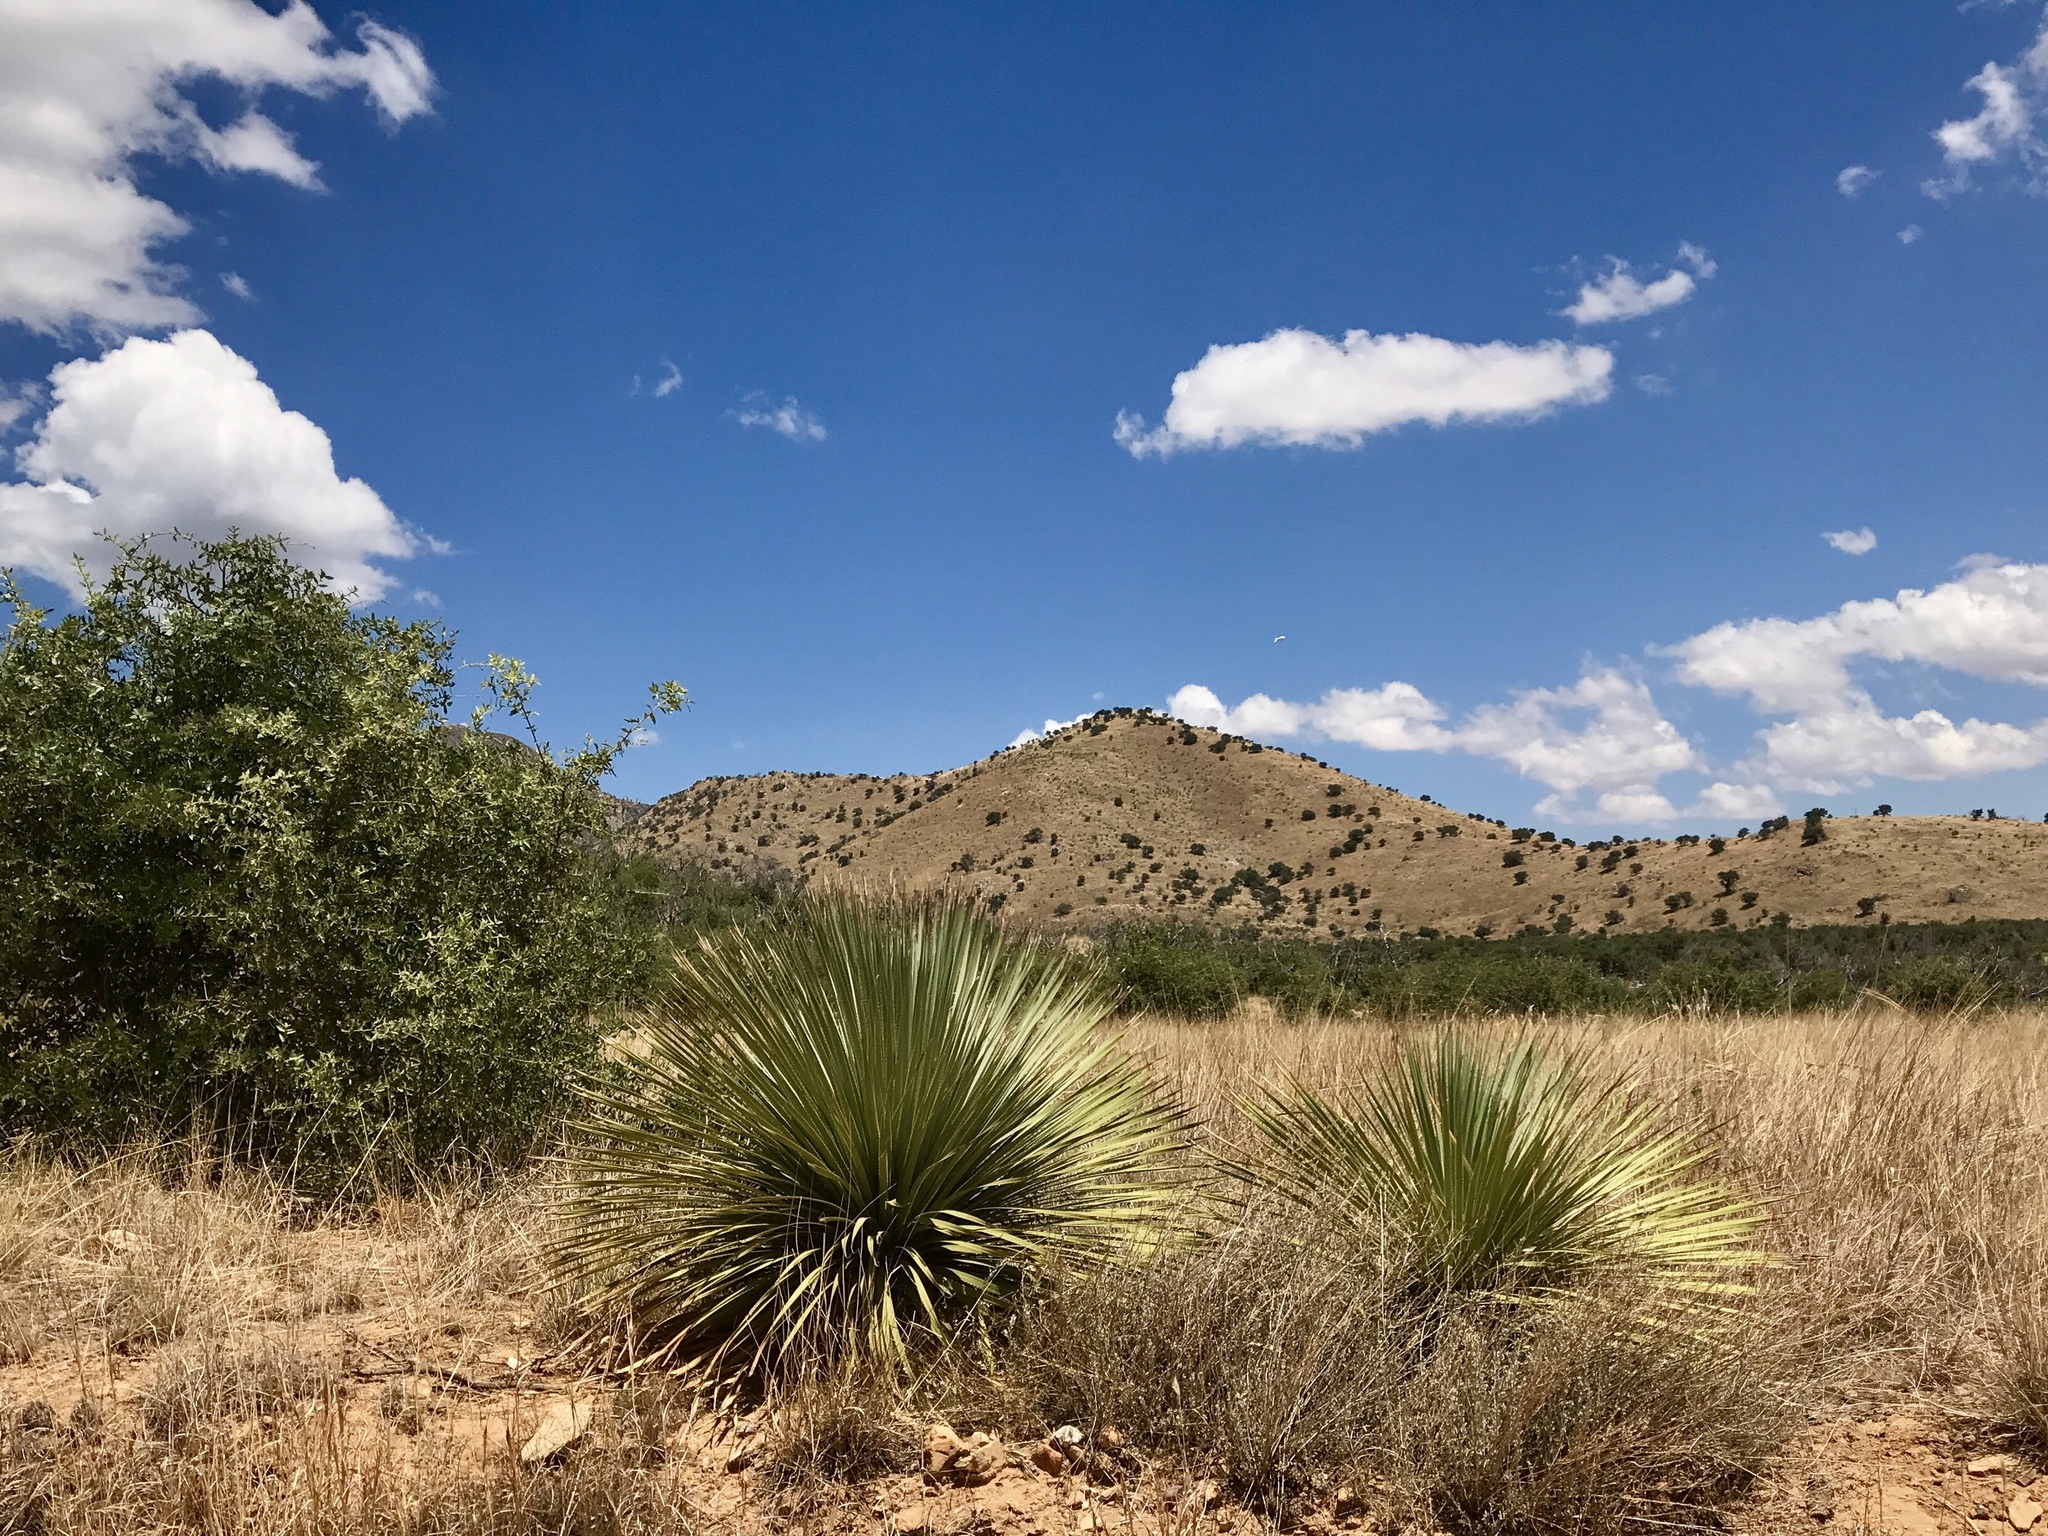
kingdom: Plantae
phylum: Tracheophyta
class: Liliopsida
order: Asparagales
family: Asparagaceae
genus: Dasylirion
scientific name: Dasylirion wheeleri
